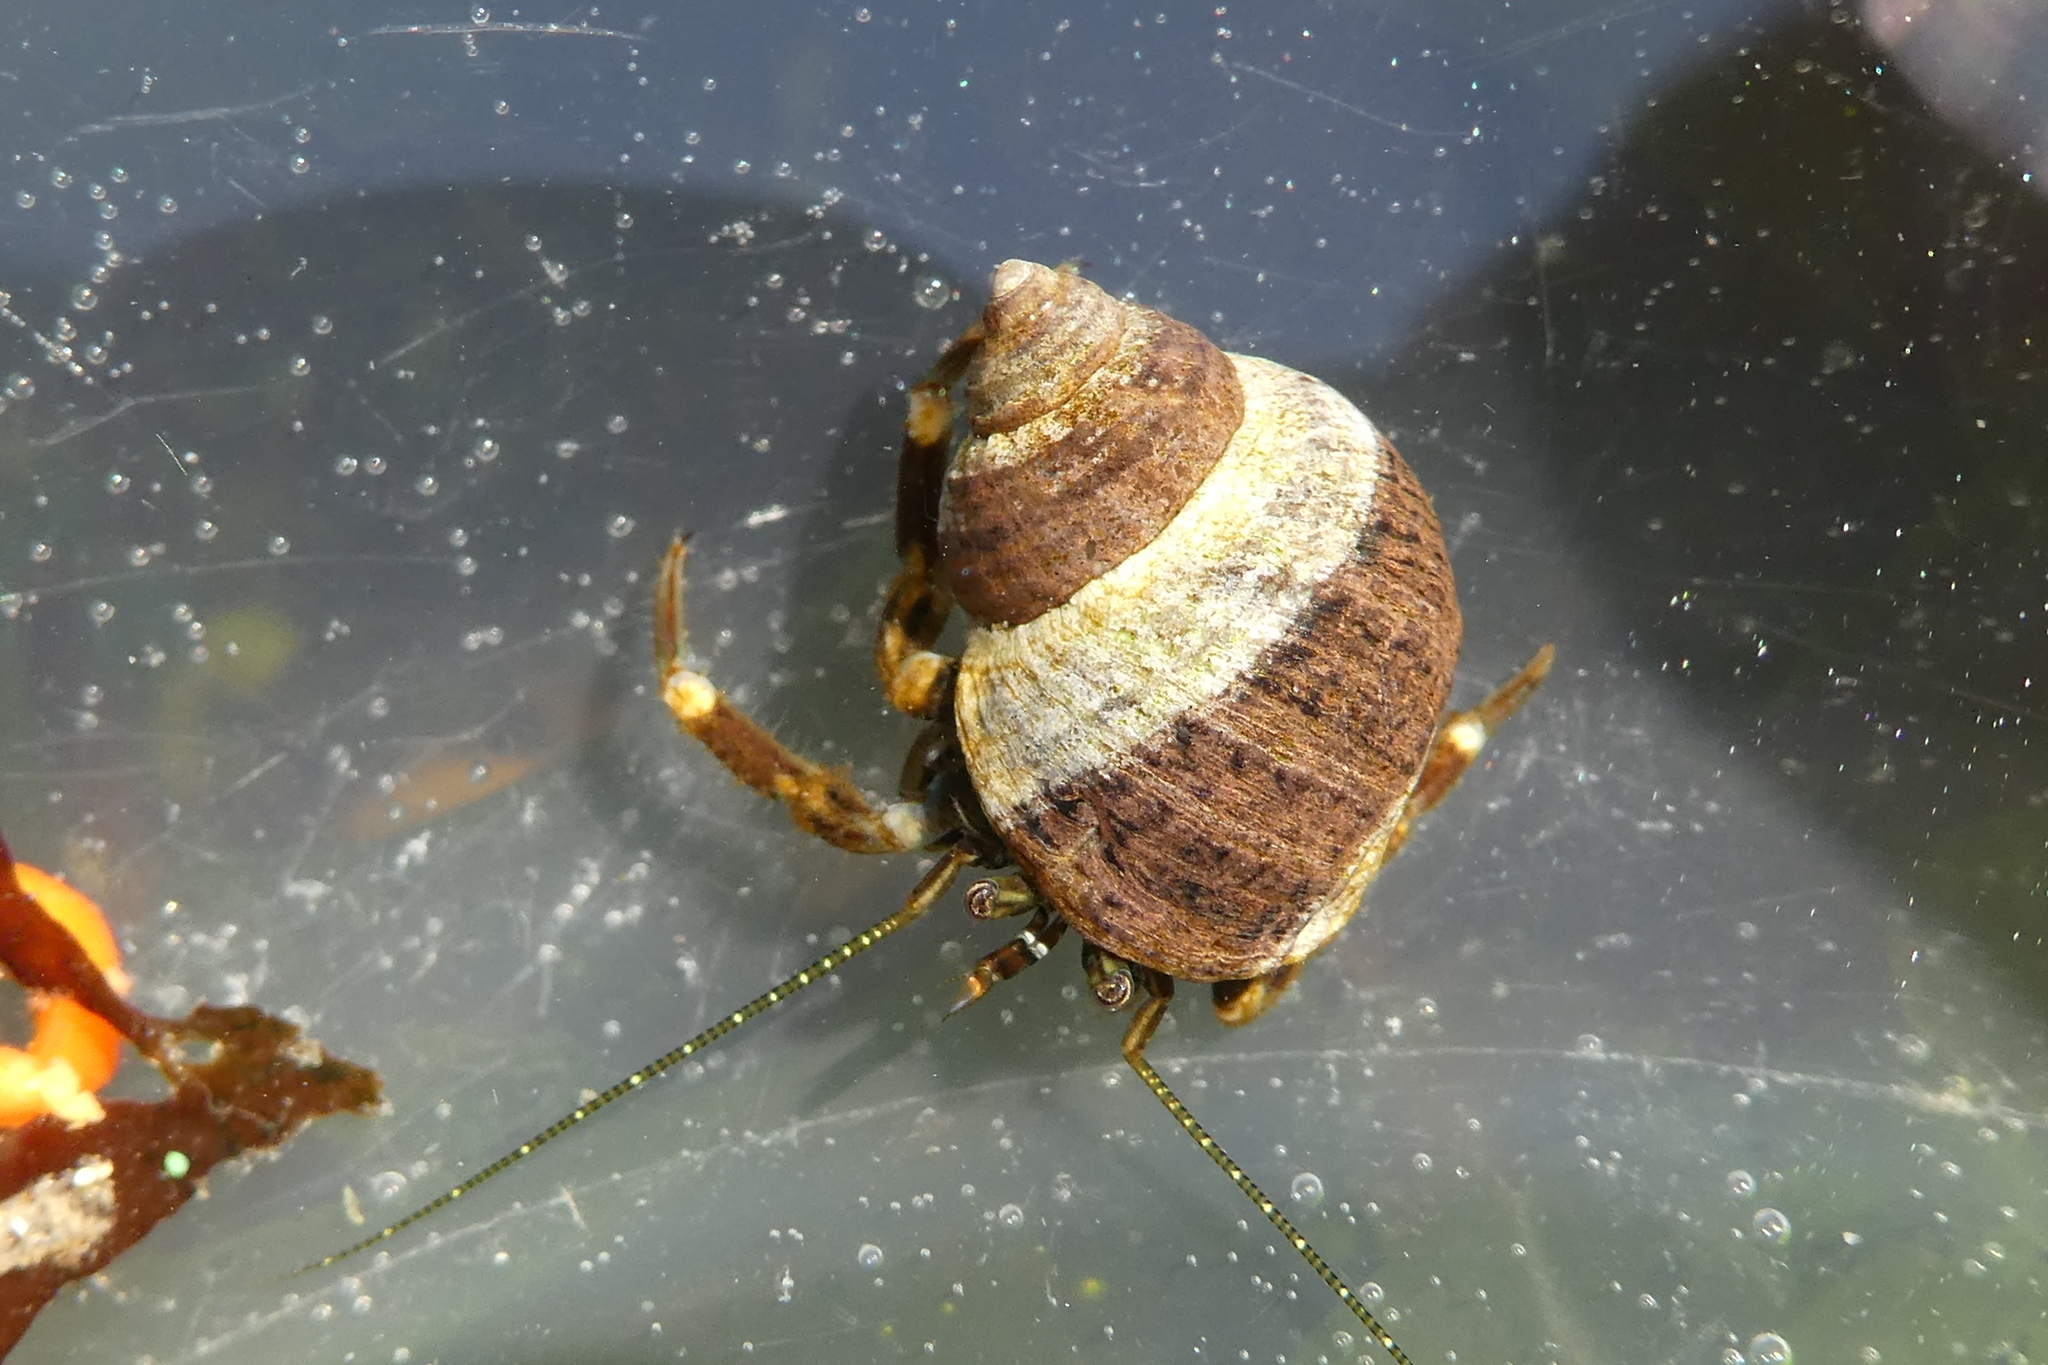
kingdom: Animalia
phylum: Arthropoda
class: Malacostraca
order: Decapoda
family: Paguridae
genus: Pagurus
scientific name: Pagurus hirsutiusculus
